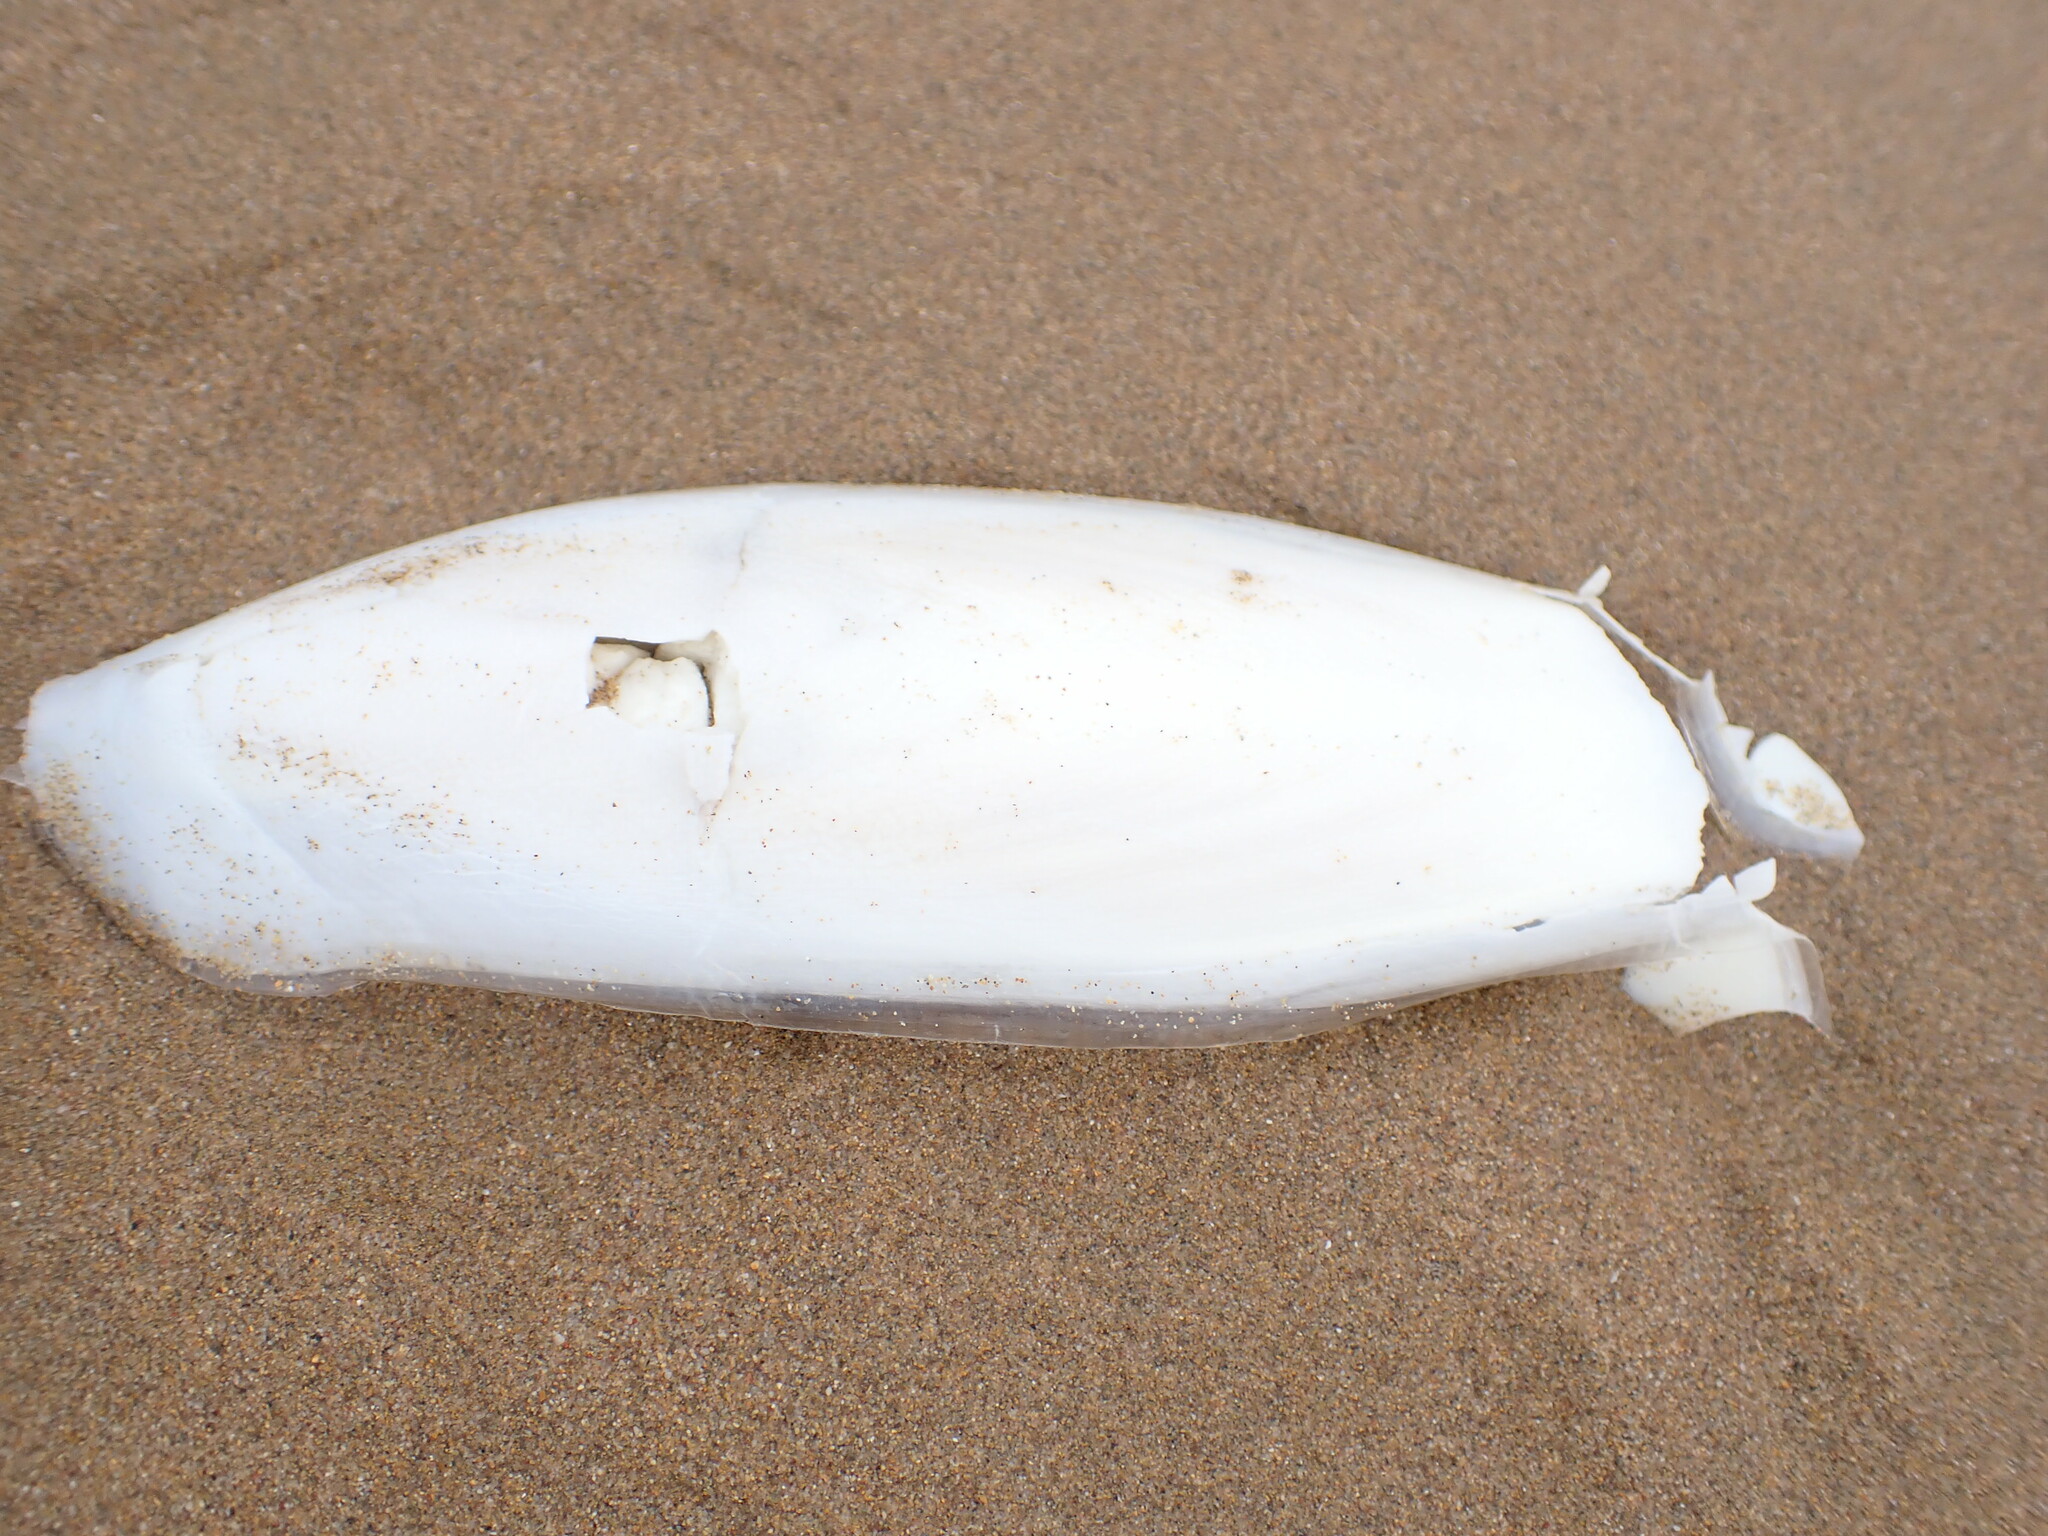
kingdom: Animalia
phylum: Mollusca
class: Cephalopoda
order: Sepiida
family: Sepiidae
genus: Sepia
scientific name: Sepia officinalis
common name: Common cuttlefish
